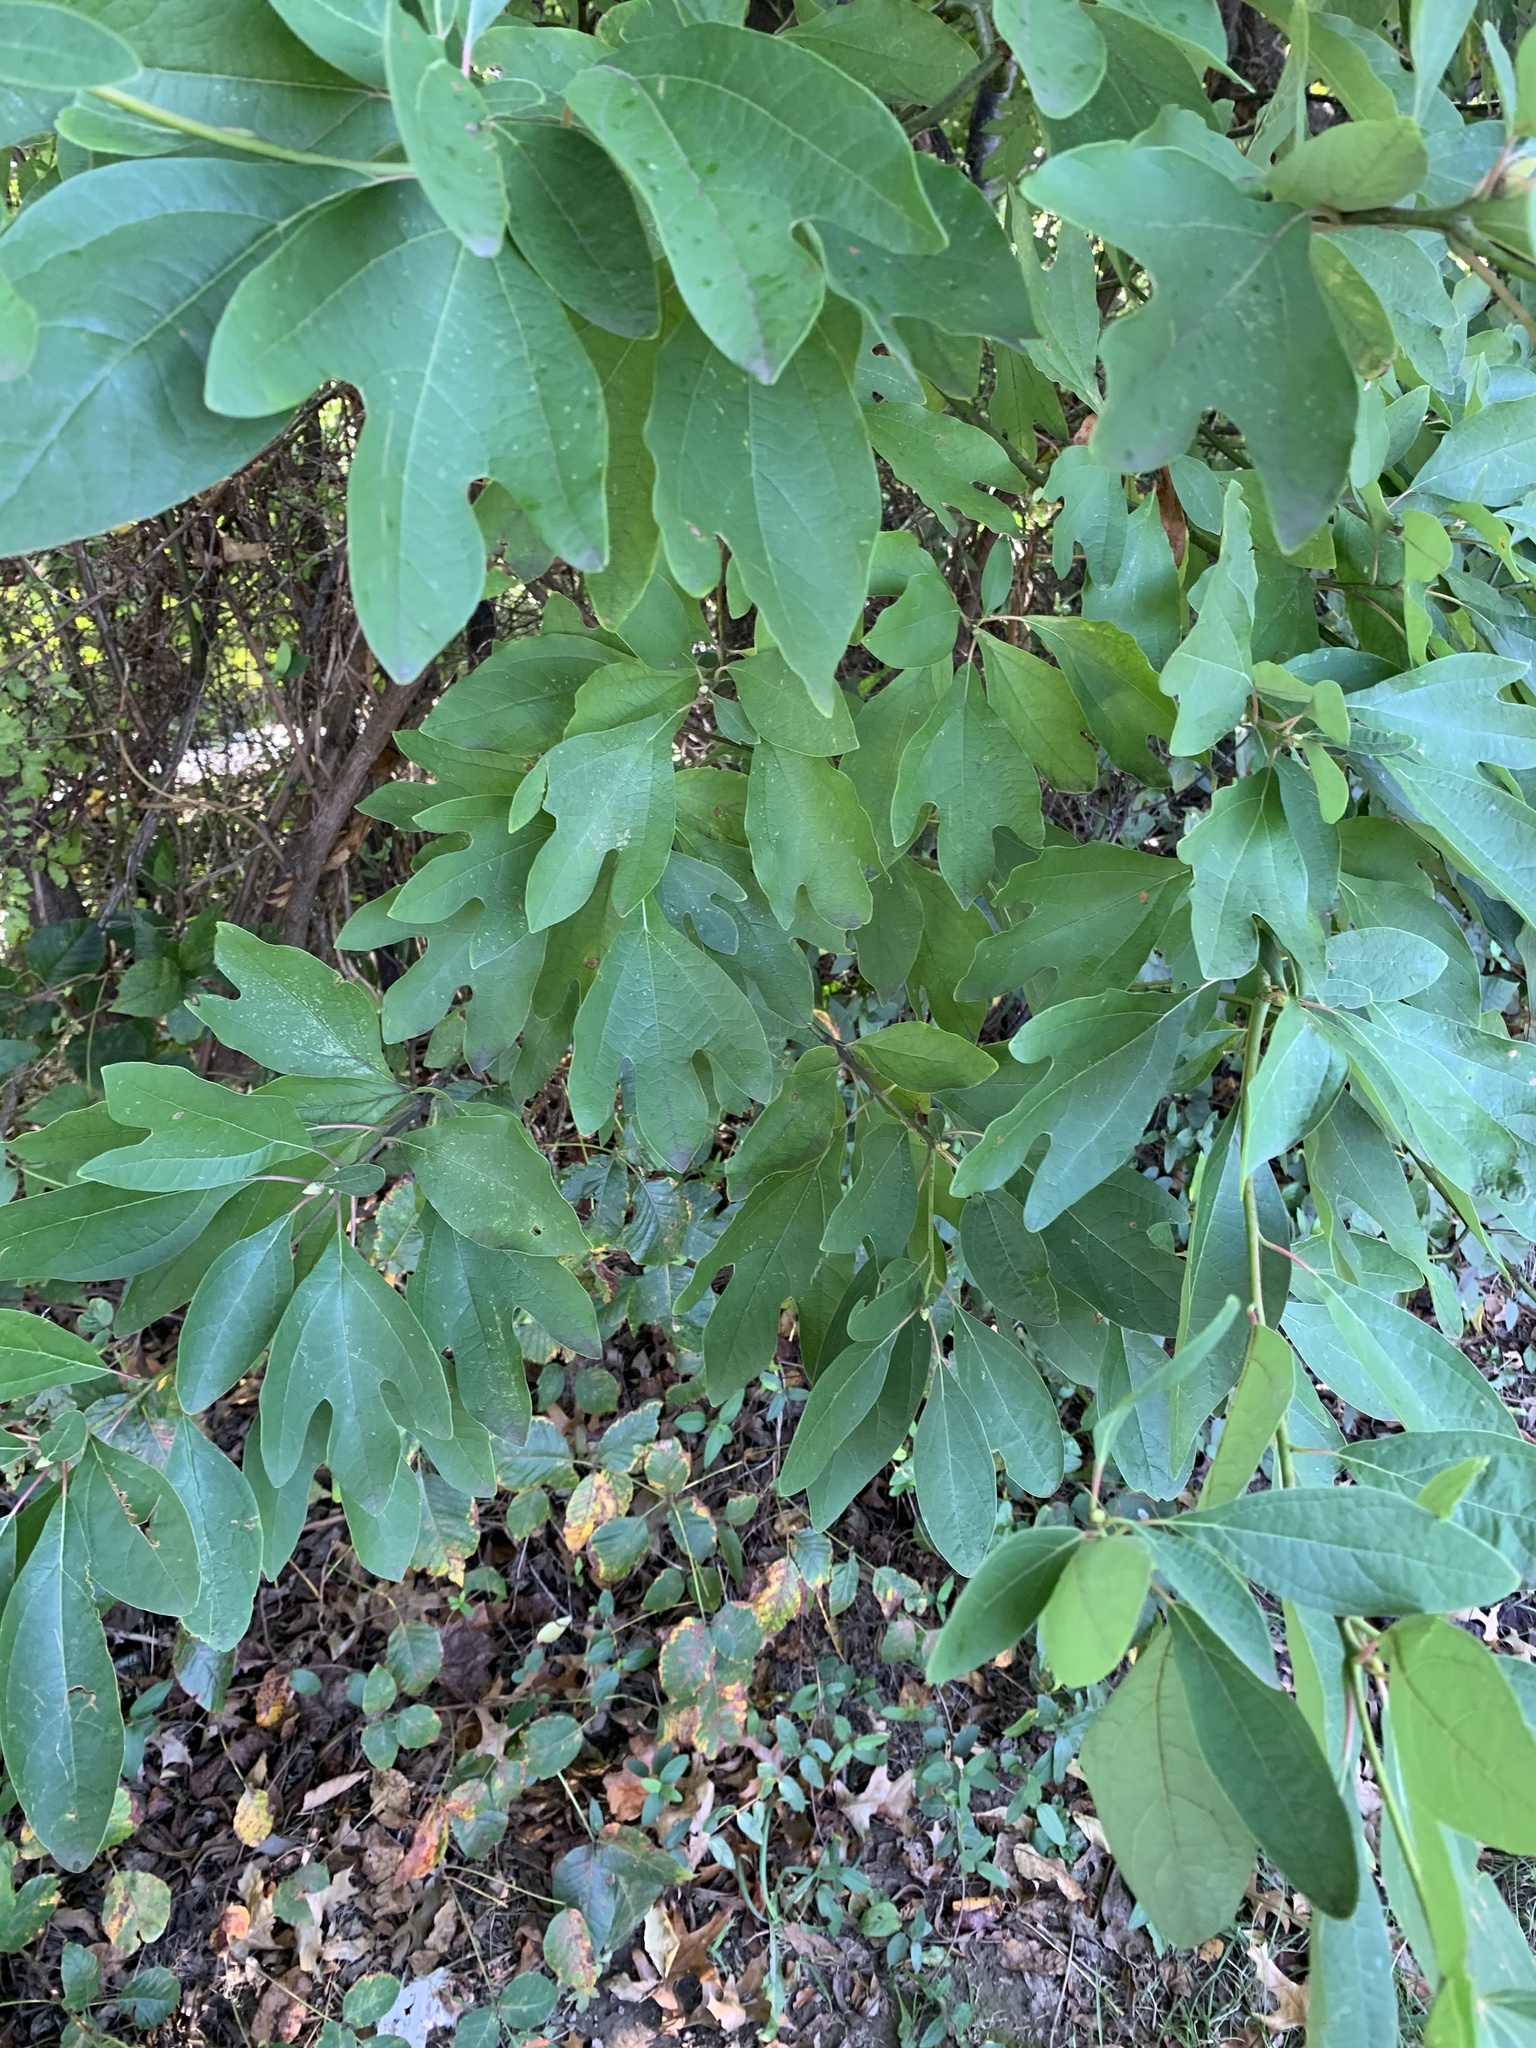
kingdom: Plantae
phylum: Tracheophyta
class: Magnoliopsida
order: Laurales
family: Lauraceae
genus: Sassafras
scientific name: Sassafras albidum
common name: Sassafras
